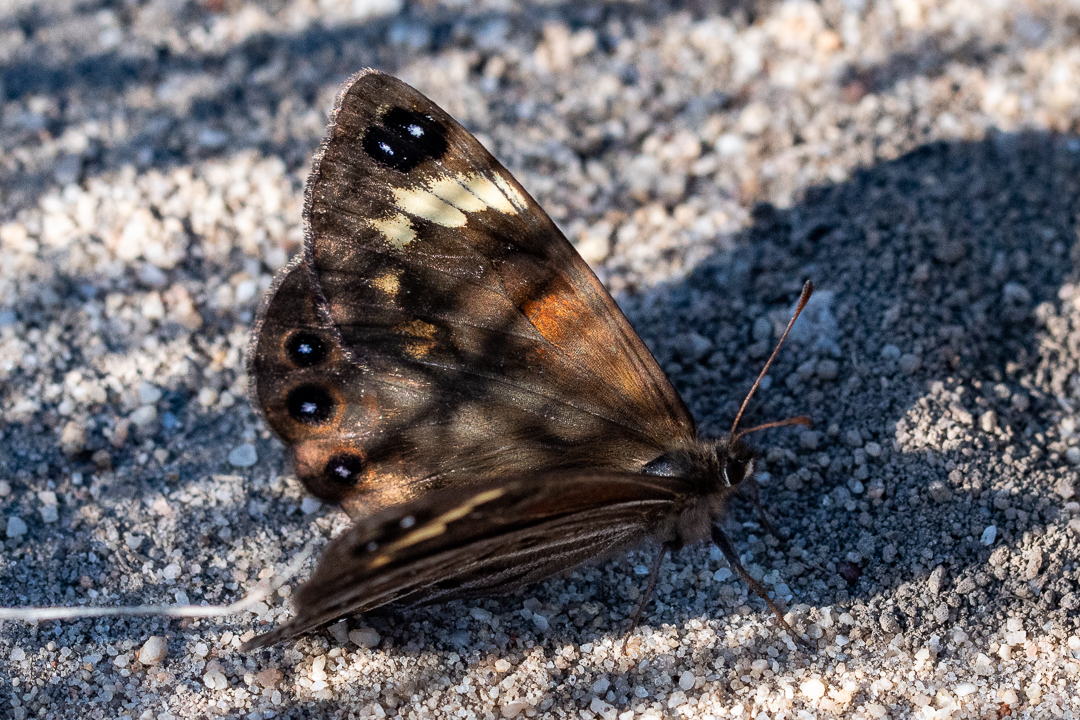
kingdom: Animalia
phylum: Arthropoda
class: Insecta
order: Lepidoptera
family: Nymphalidae
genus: Torynesis
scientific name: Torynesis hawequas
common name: Hawequas widow
